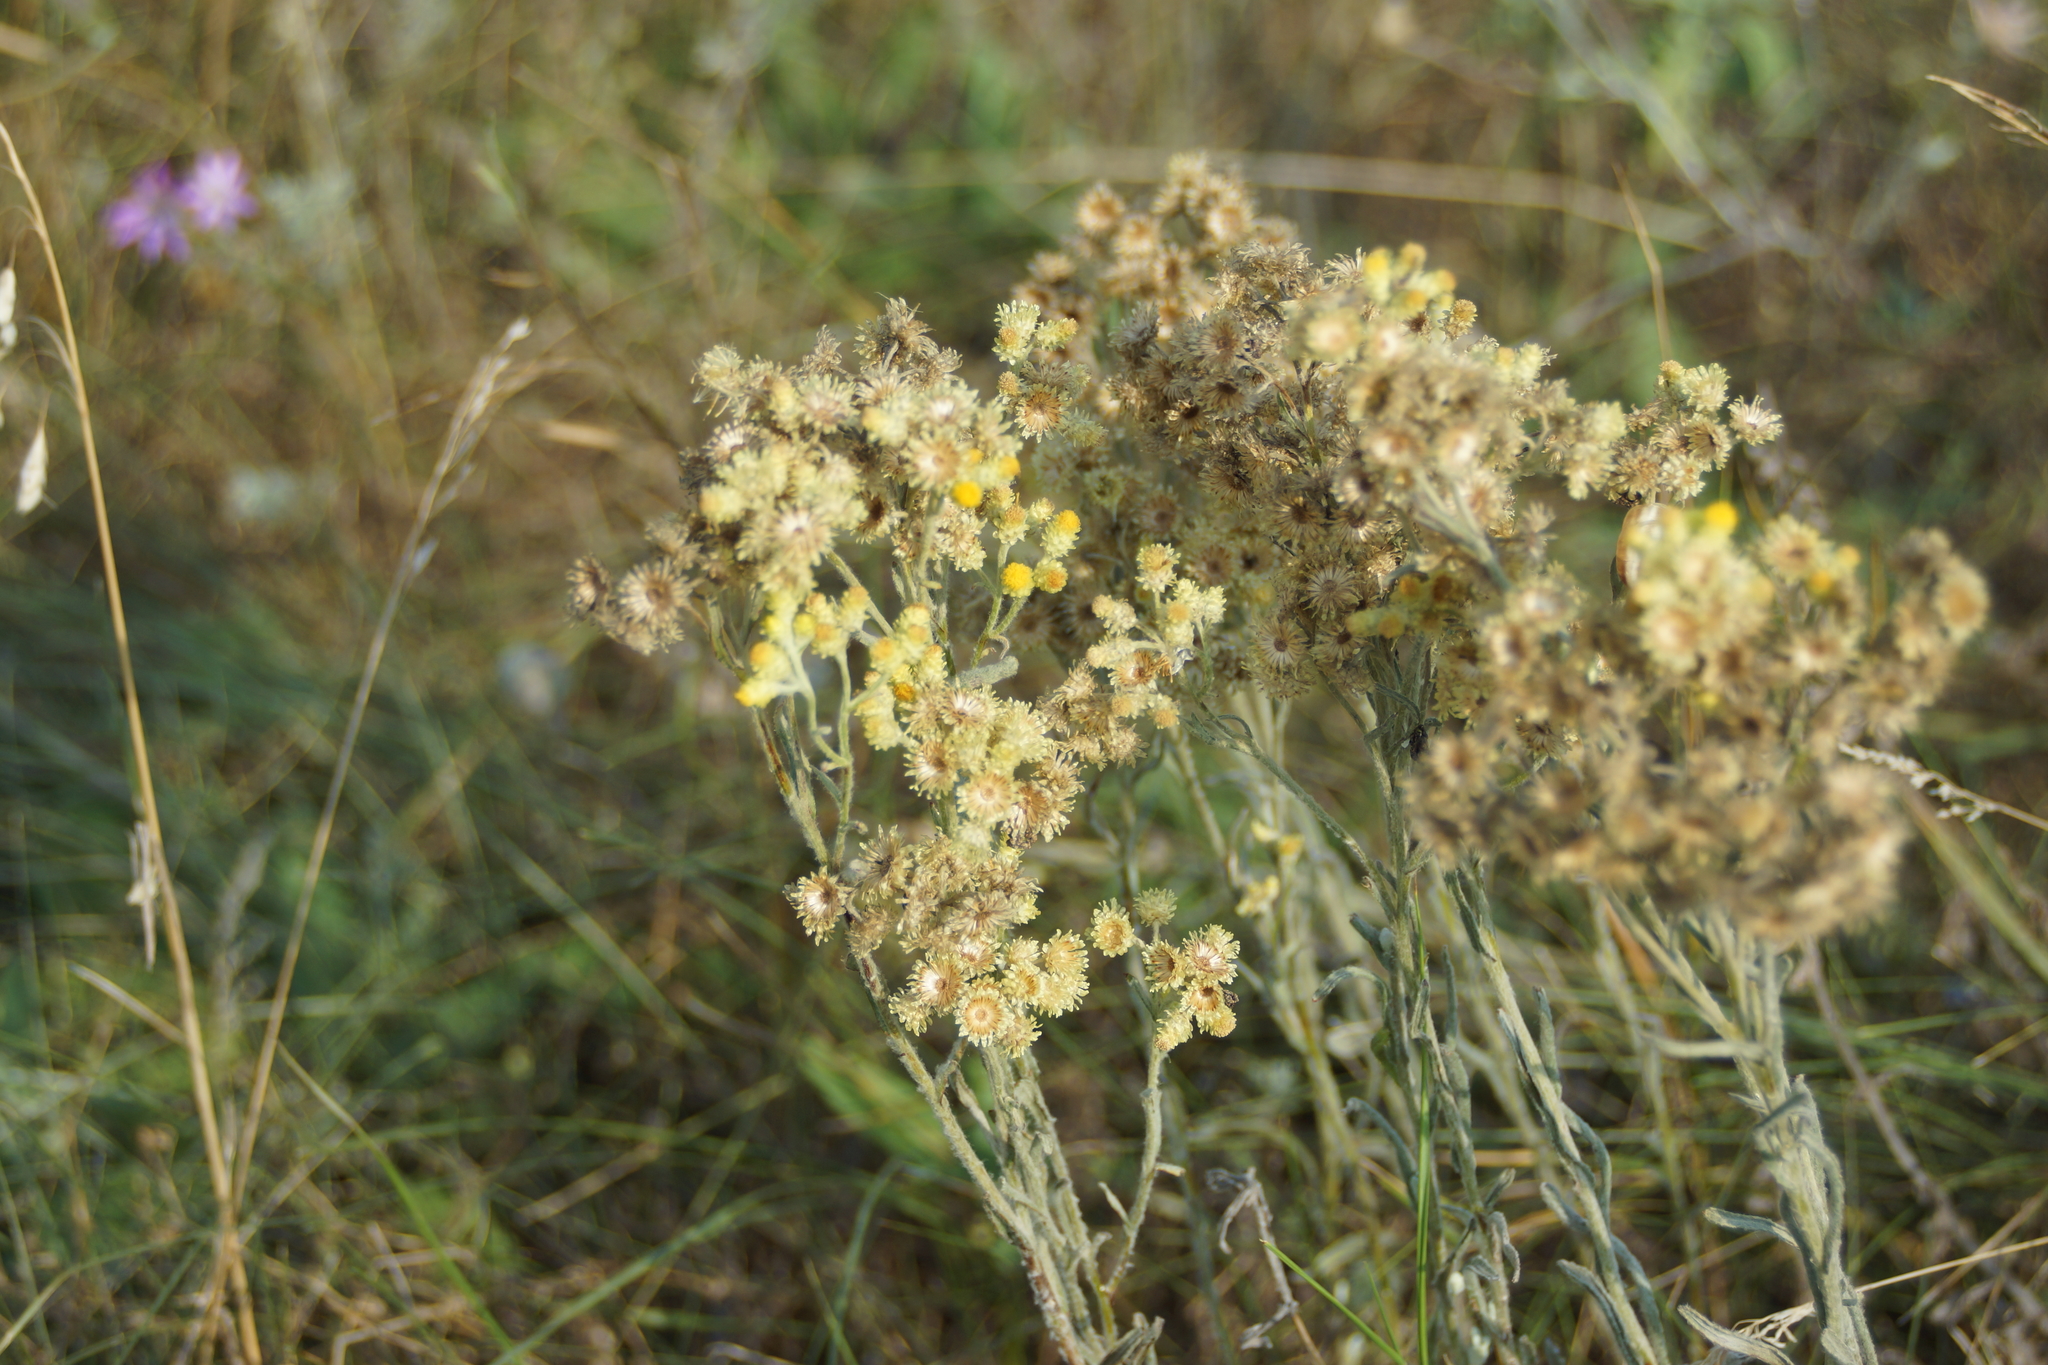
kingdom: Plantae
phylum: Tracheophyta
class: Magnoliopsida
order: Asterales
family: Asteraceae
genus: Helichrysum
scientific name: Helichrysum arenarium
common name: Strawflower
